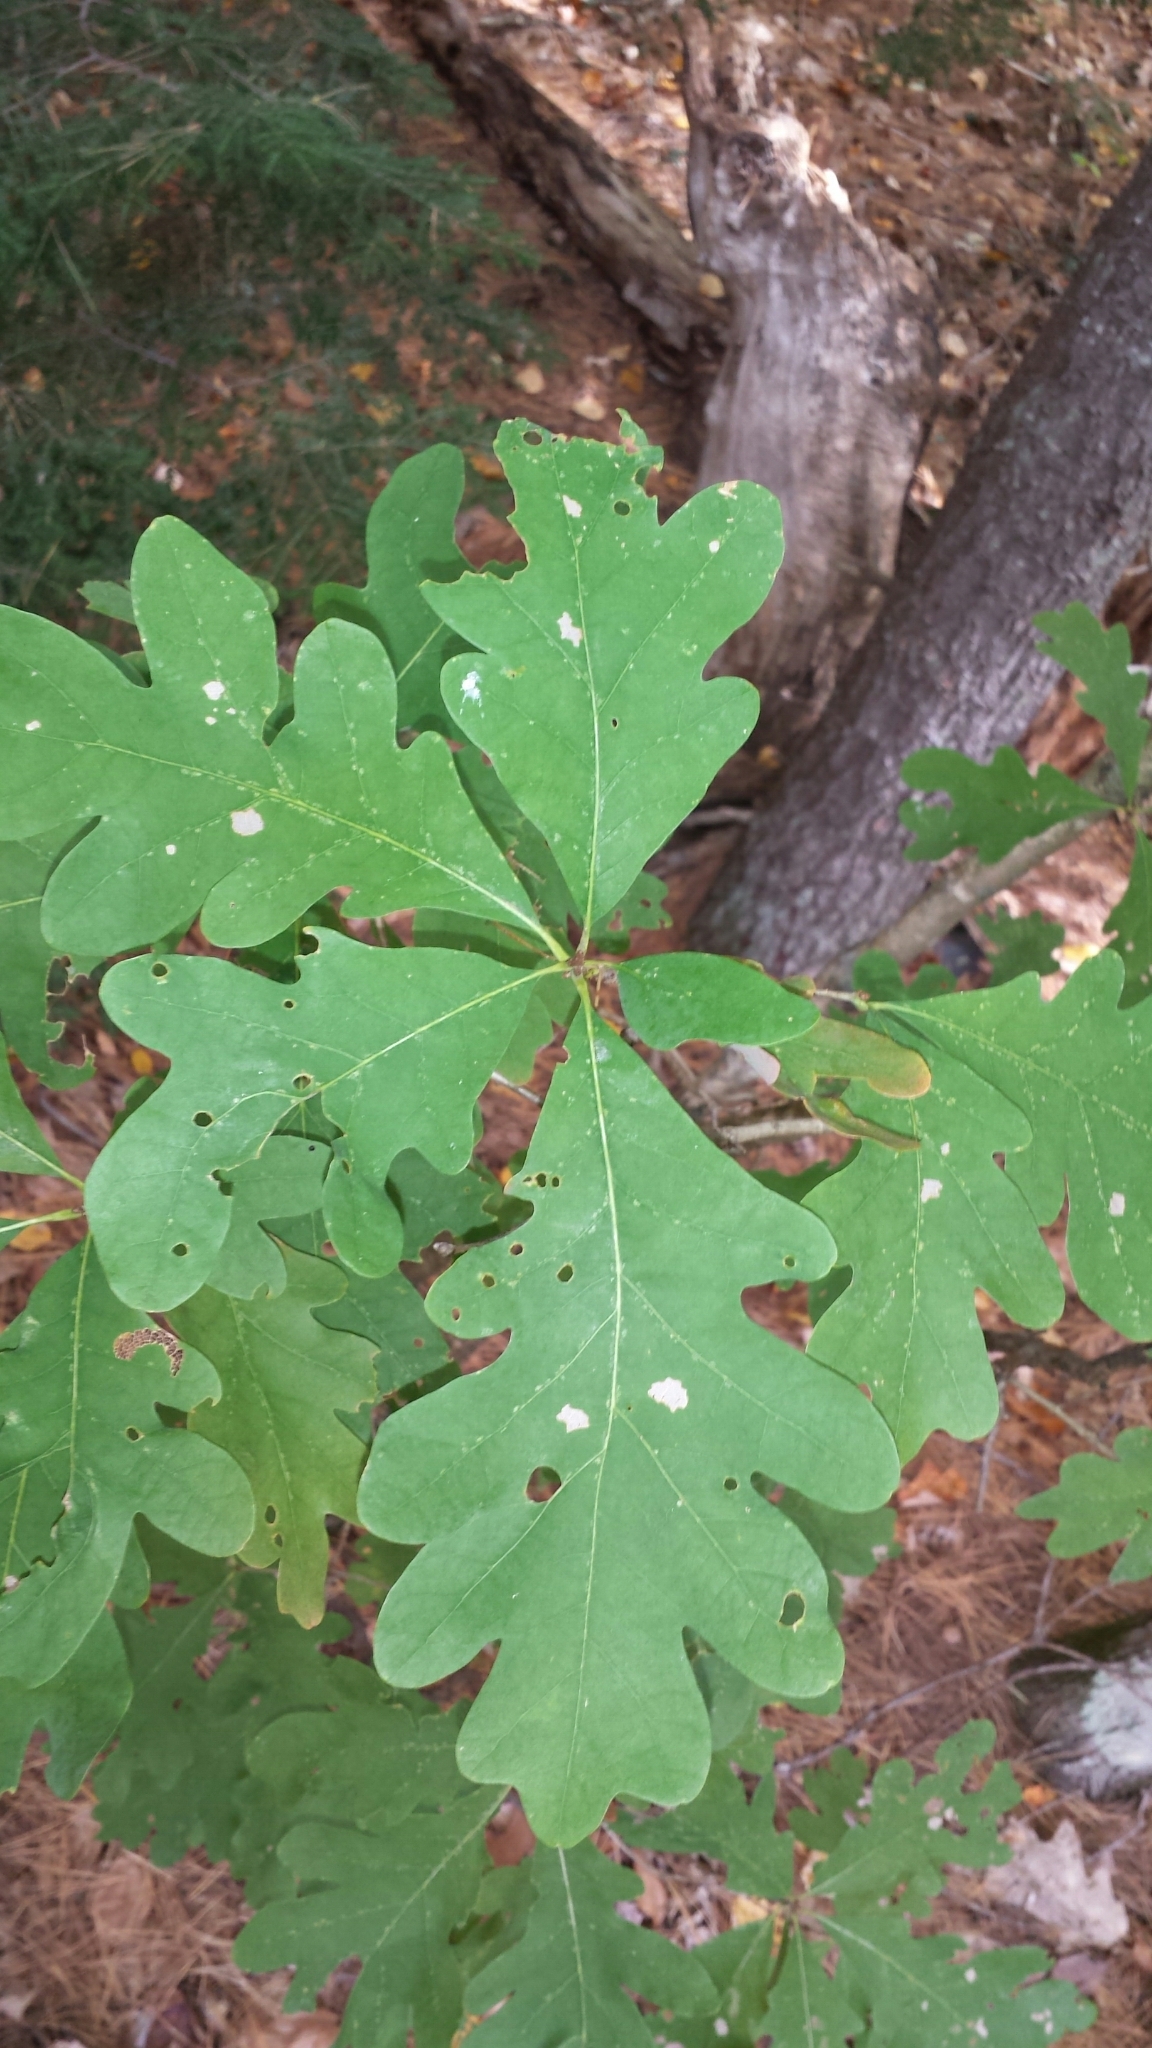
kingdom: Plantae
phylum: Tracheophyta
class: Magnoliopsida
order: Fagales
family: Fagaceae
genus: Quercus
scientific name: Quercus alba
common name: White oak
